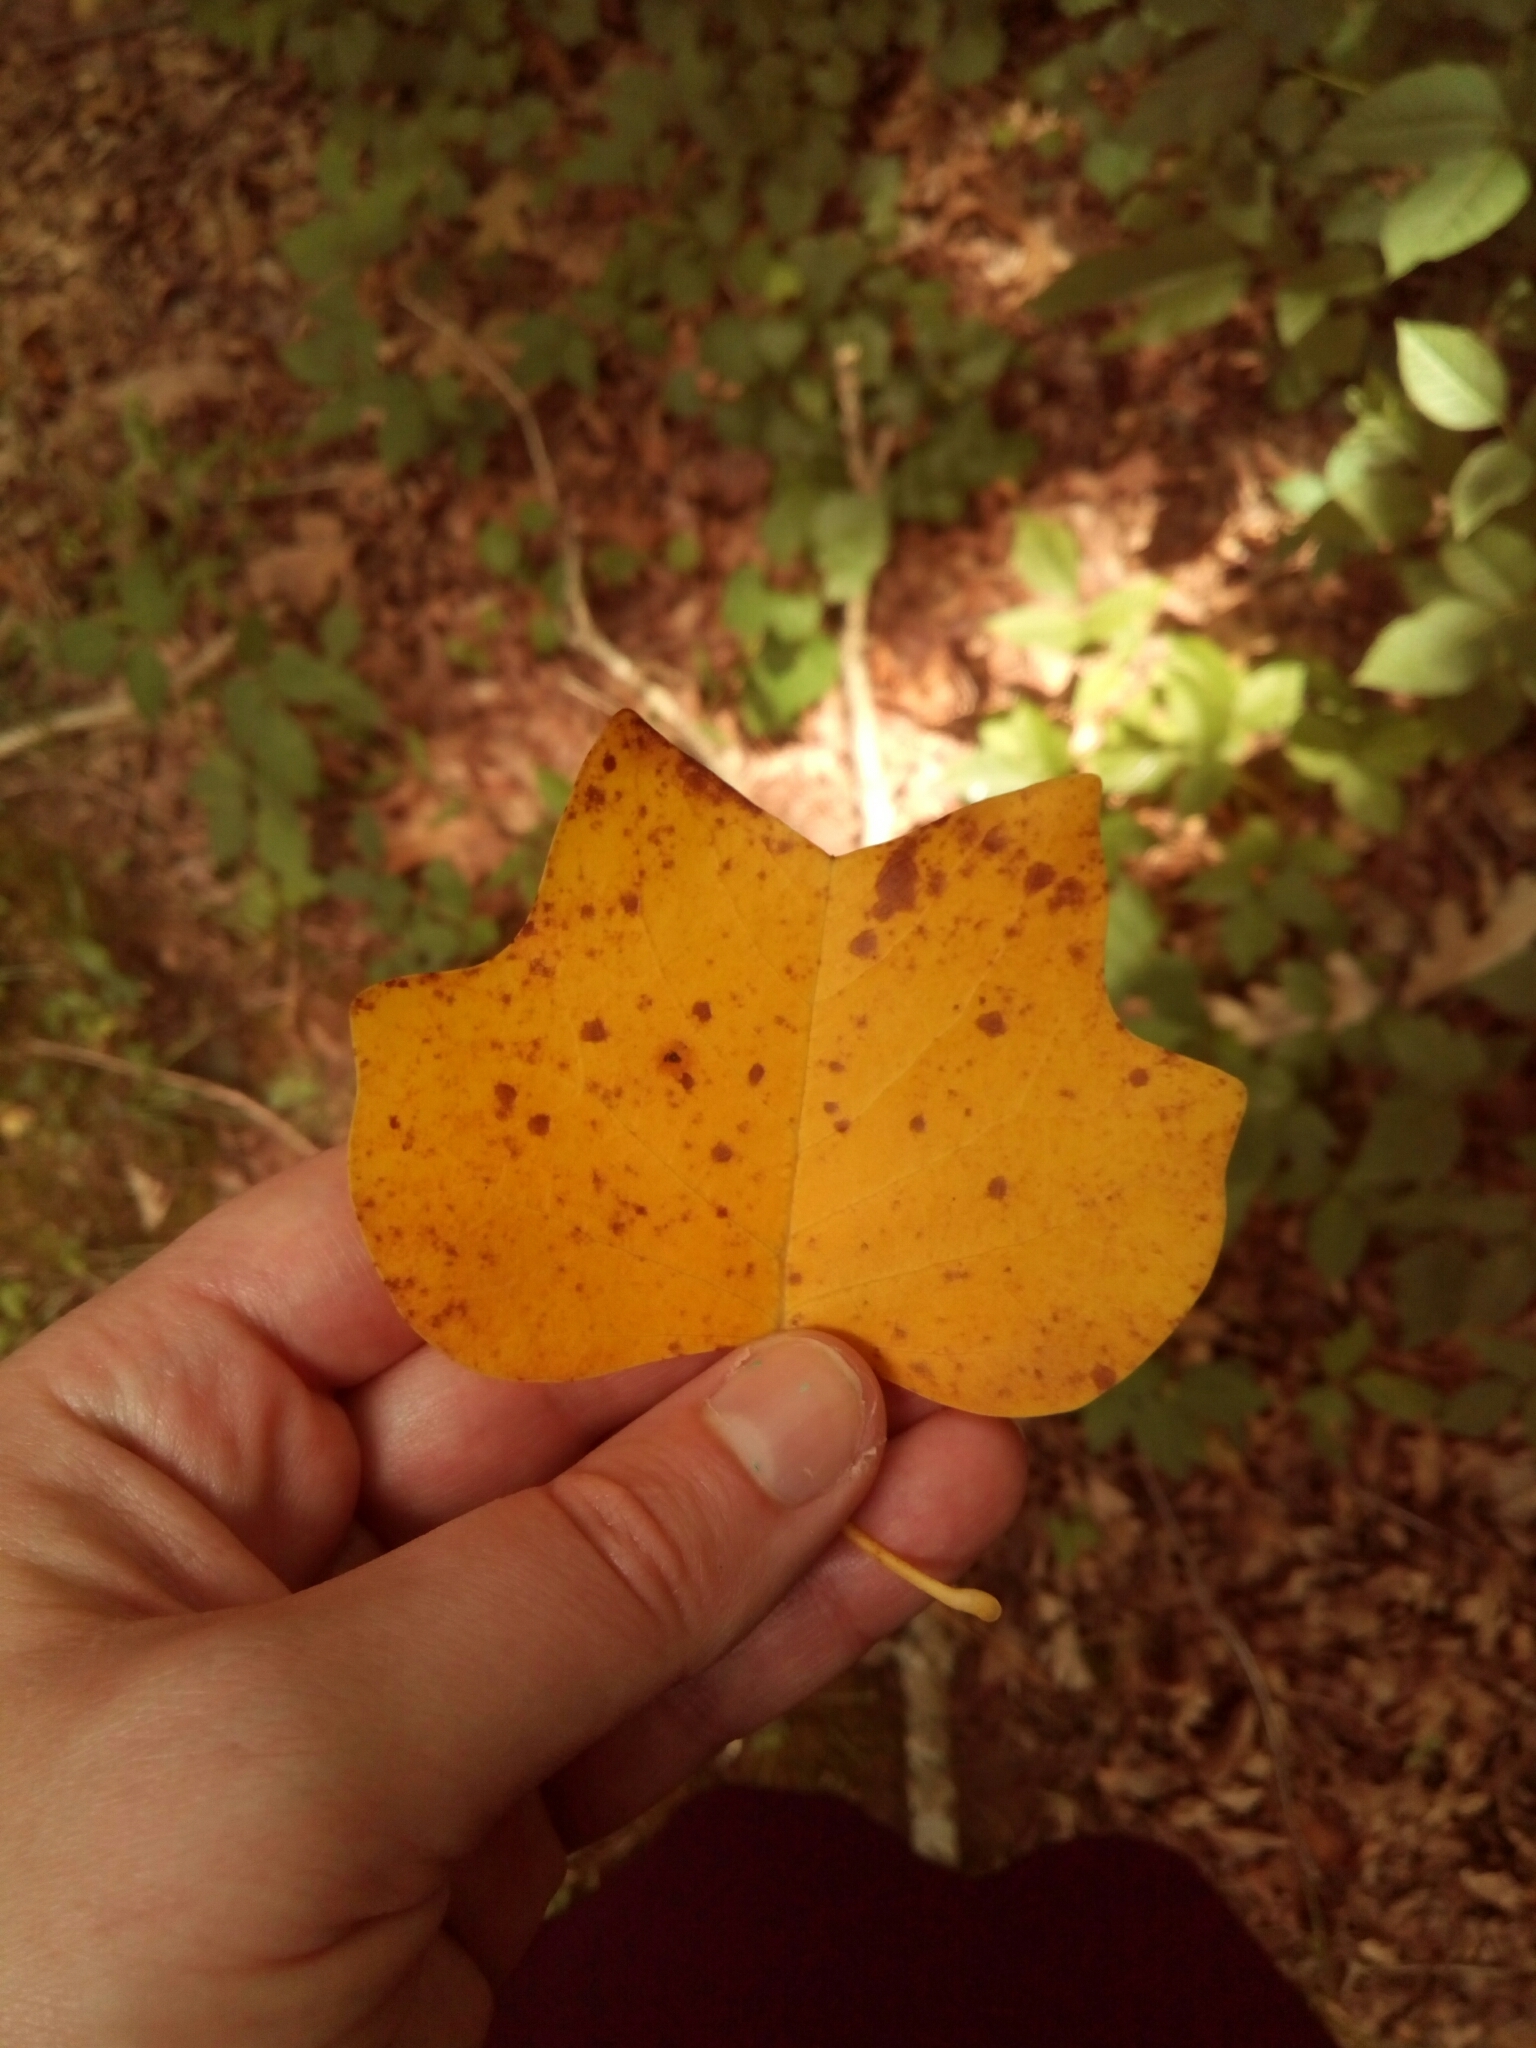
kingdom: Plantae
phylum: Tracheophyta
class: Magnoliopsida
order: Magnoliales
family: Magnoliaceae
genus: Liriodendron
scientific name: Liriodendron tulipifera
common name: Tulip tree
